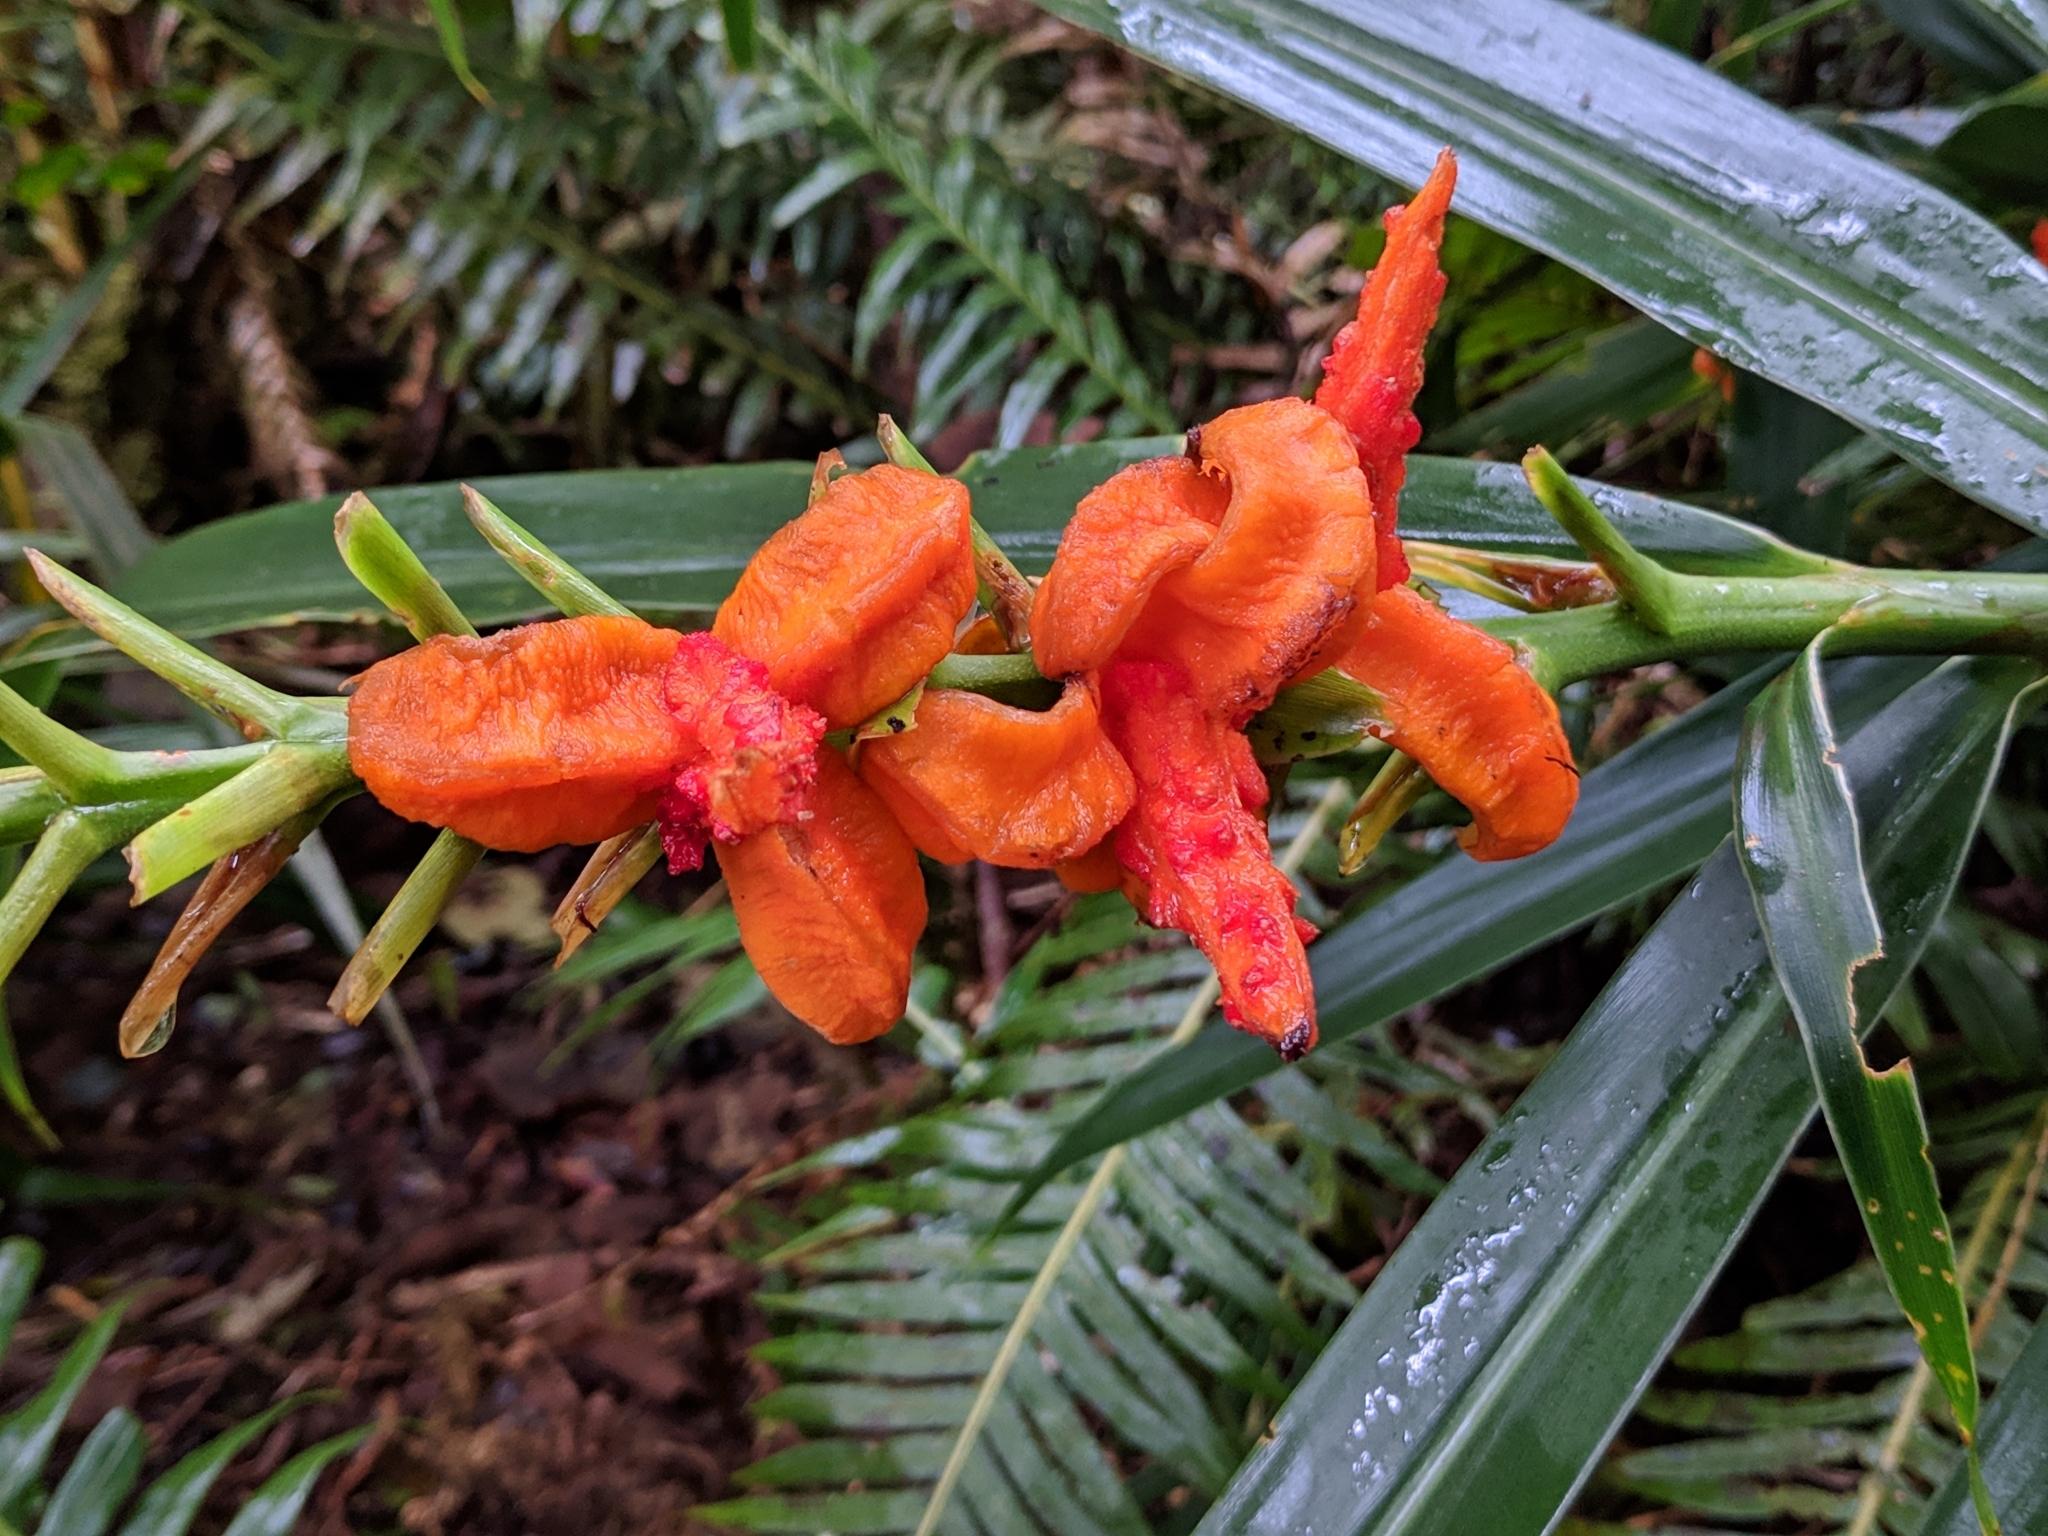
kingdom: Plantae
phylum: Tracheophyta
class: Liliopsida
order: Zingiberales
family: Zingiberaceae
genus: Hedychium
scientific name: Hedychium coccineum
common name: Red ginger-lily
